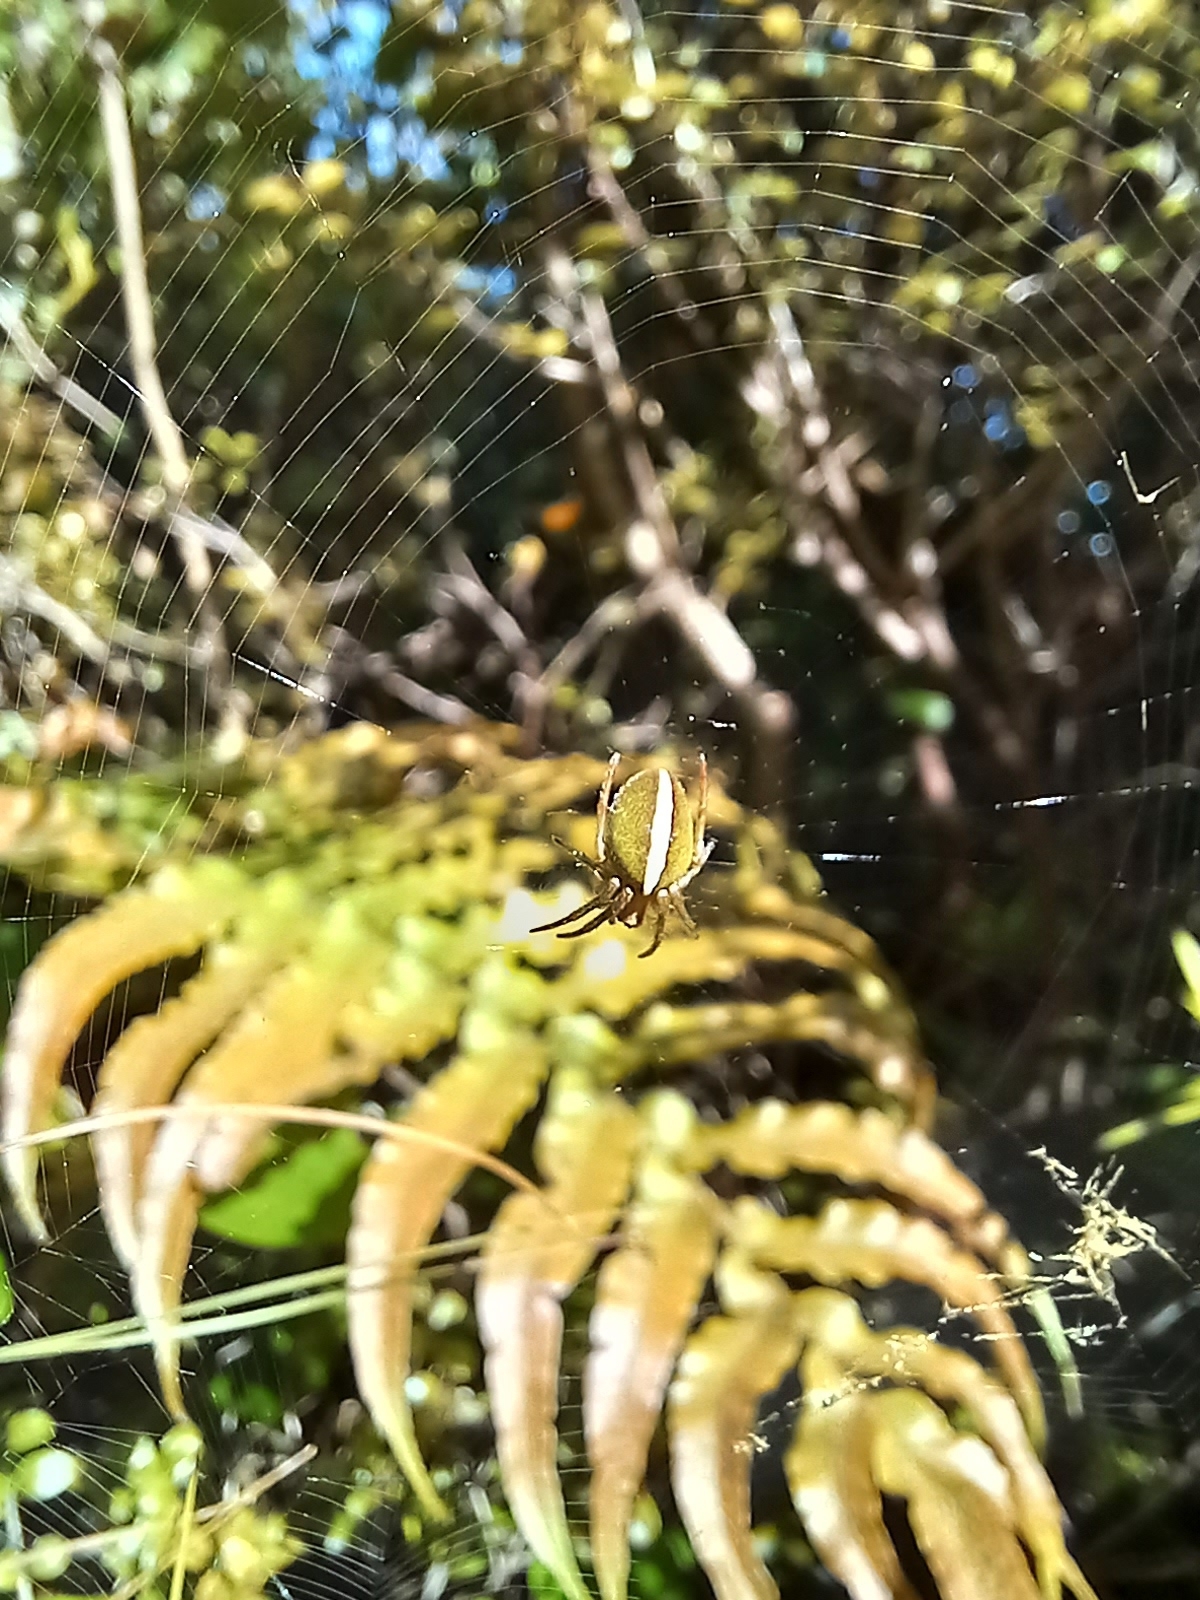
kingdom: Animalia
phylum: Arthropoda
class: Arachnida
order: Araneae
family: Araneidae
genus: Colaranea
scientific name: Colaranea brunnea
